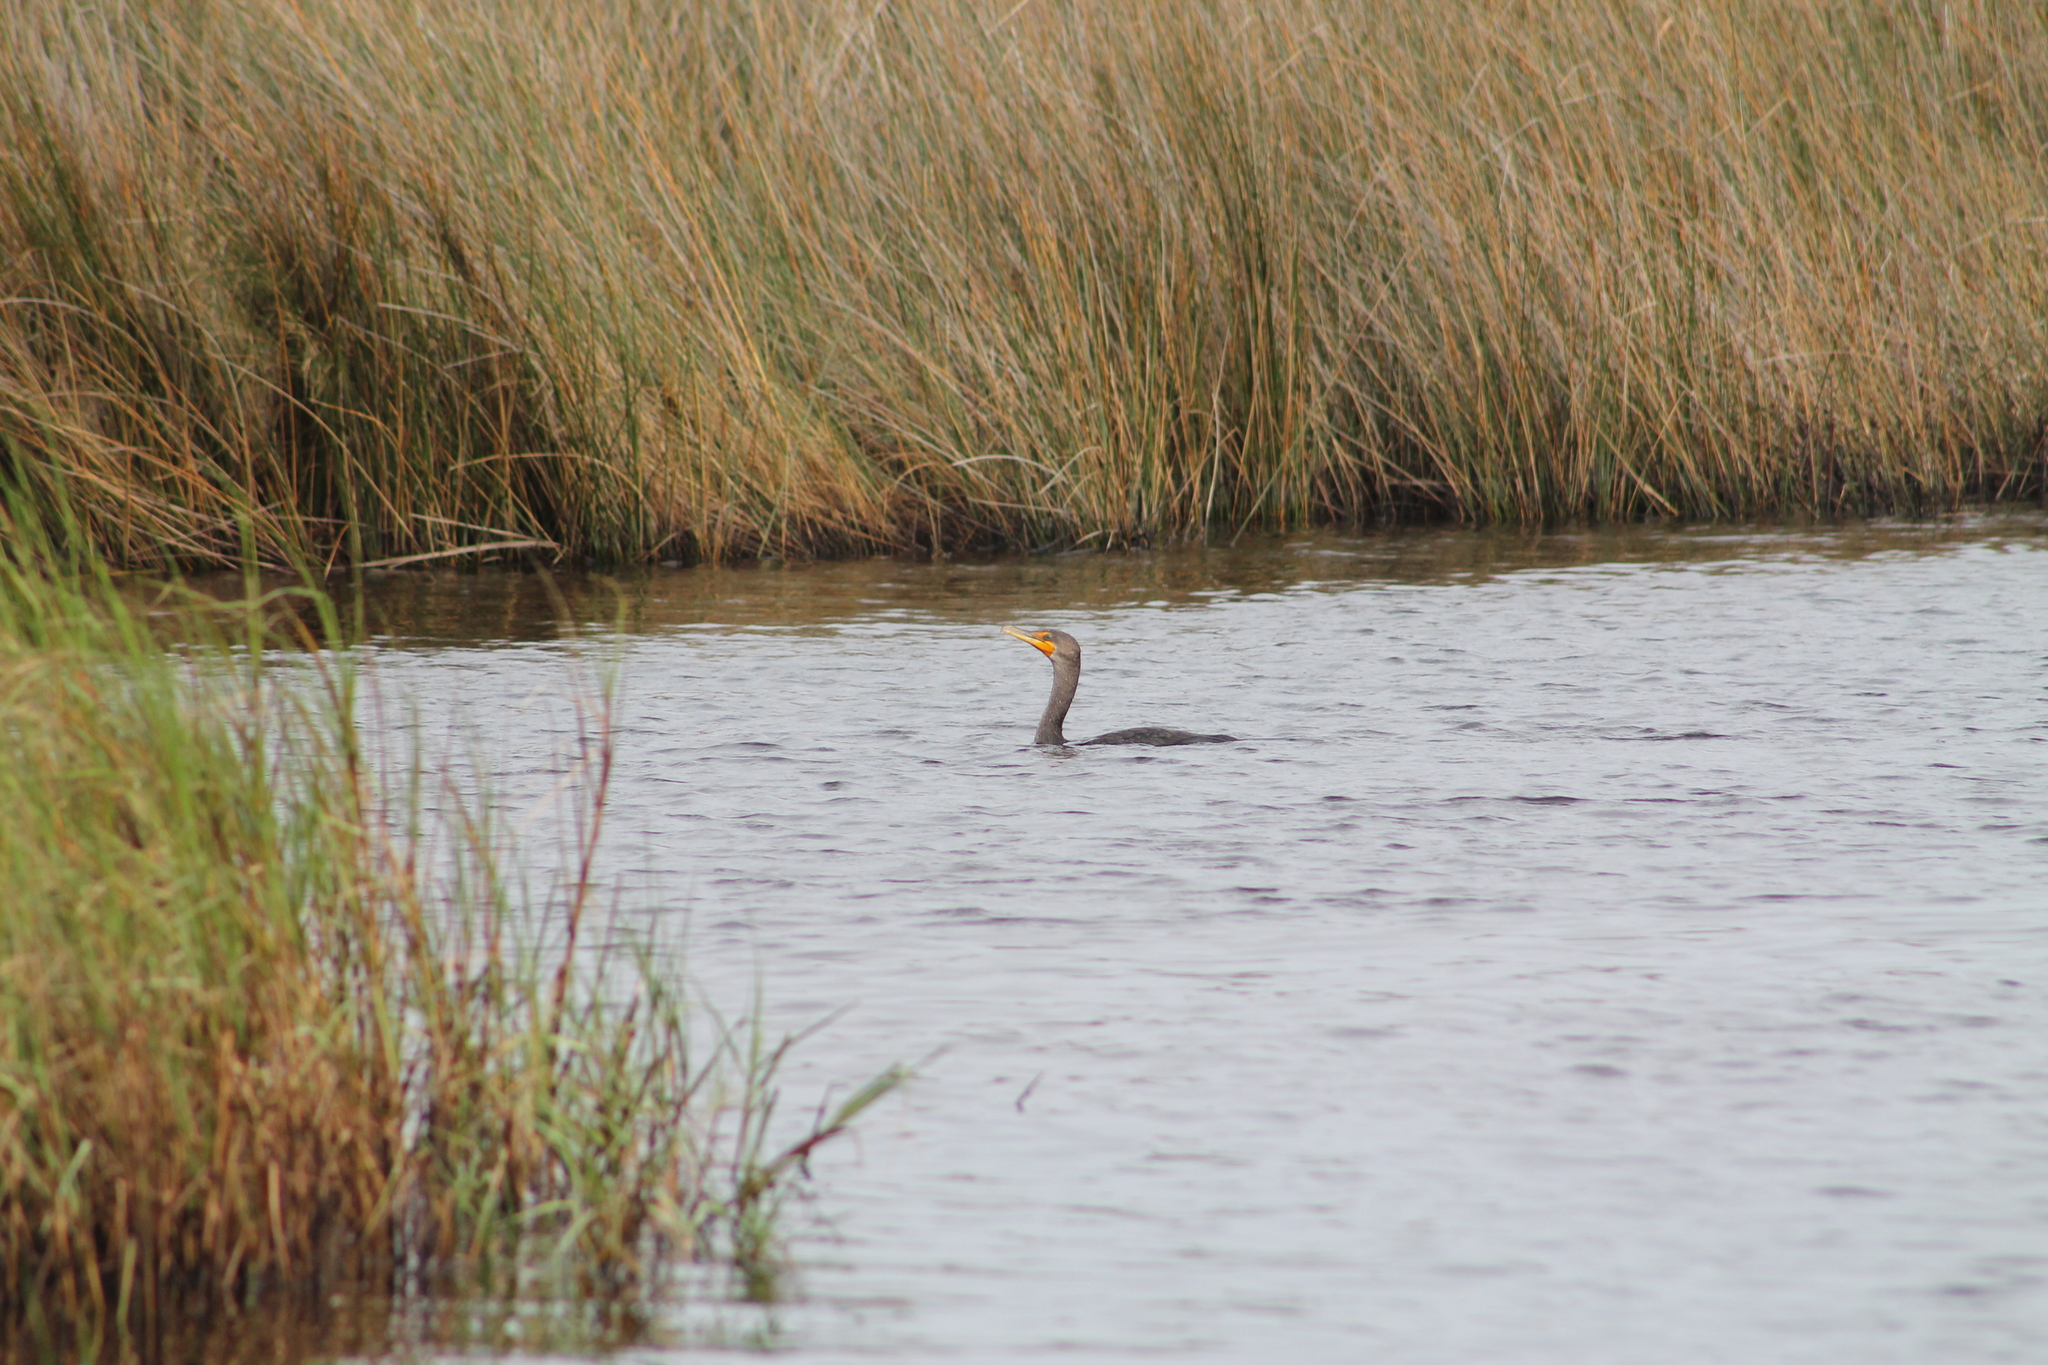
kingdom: Animalia
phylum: Chordata
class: Aves
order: Suliformes
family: Phalacrocoracidae
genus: Phalacrocorax
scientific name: Phalacrocorax auritus
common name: Double-crested cormorant
